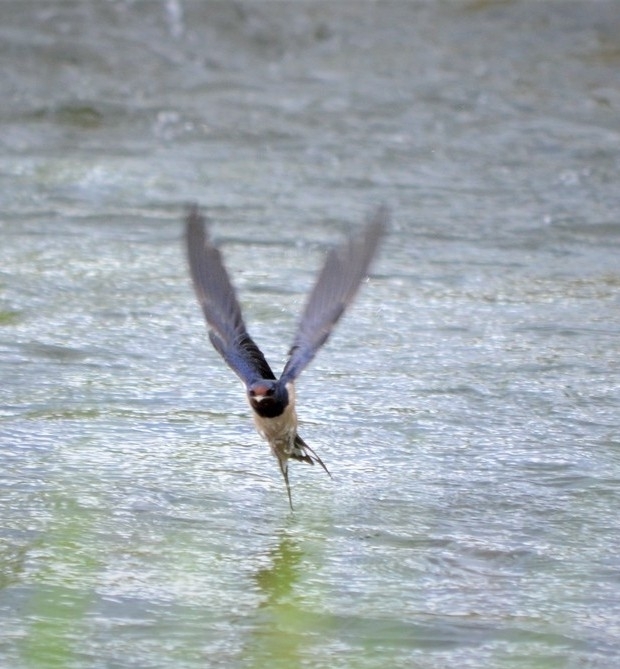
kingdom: Animalia
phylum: Chordata
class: Aves
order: Passeriformes
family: Hirundinidae
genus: Hirundo
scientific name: Hirundo rustica
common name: Barn swallow
